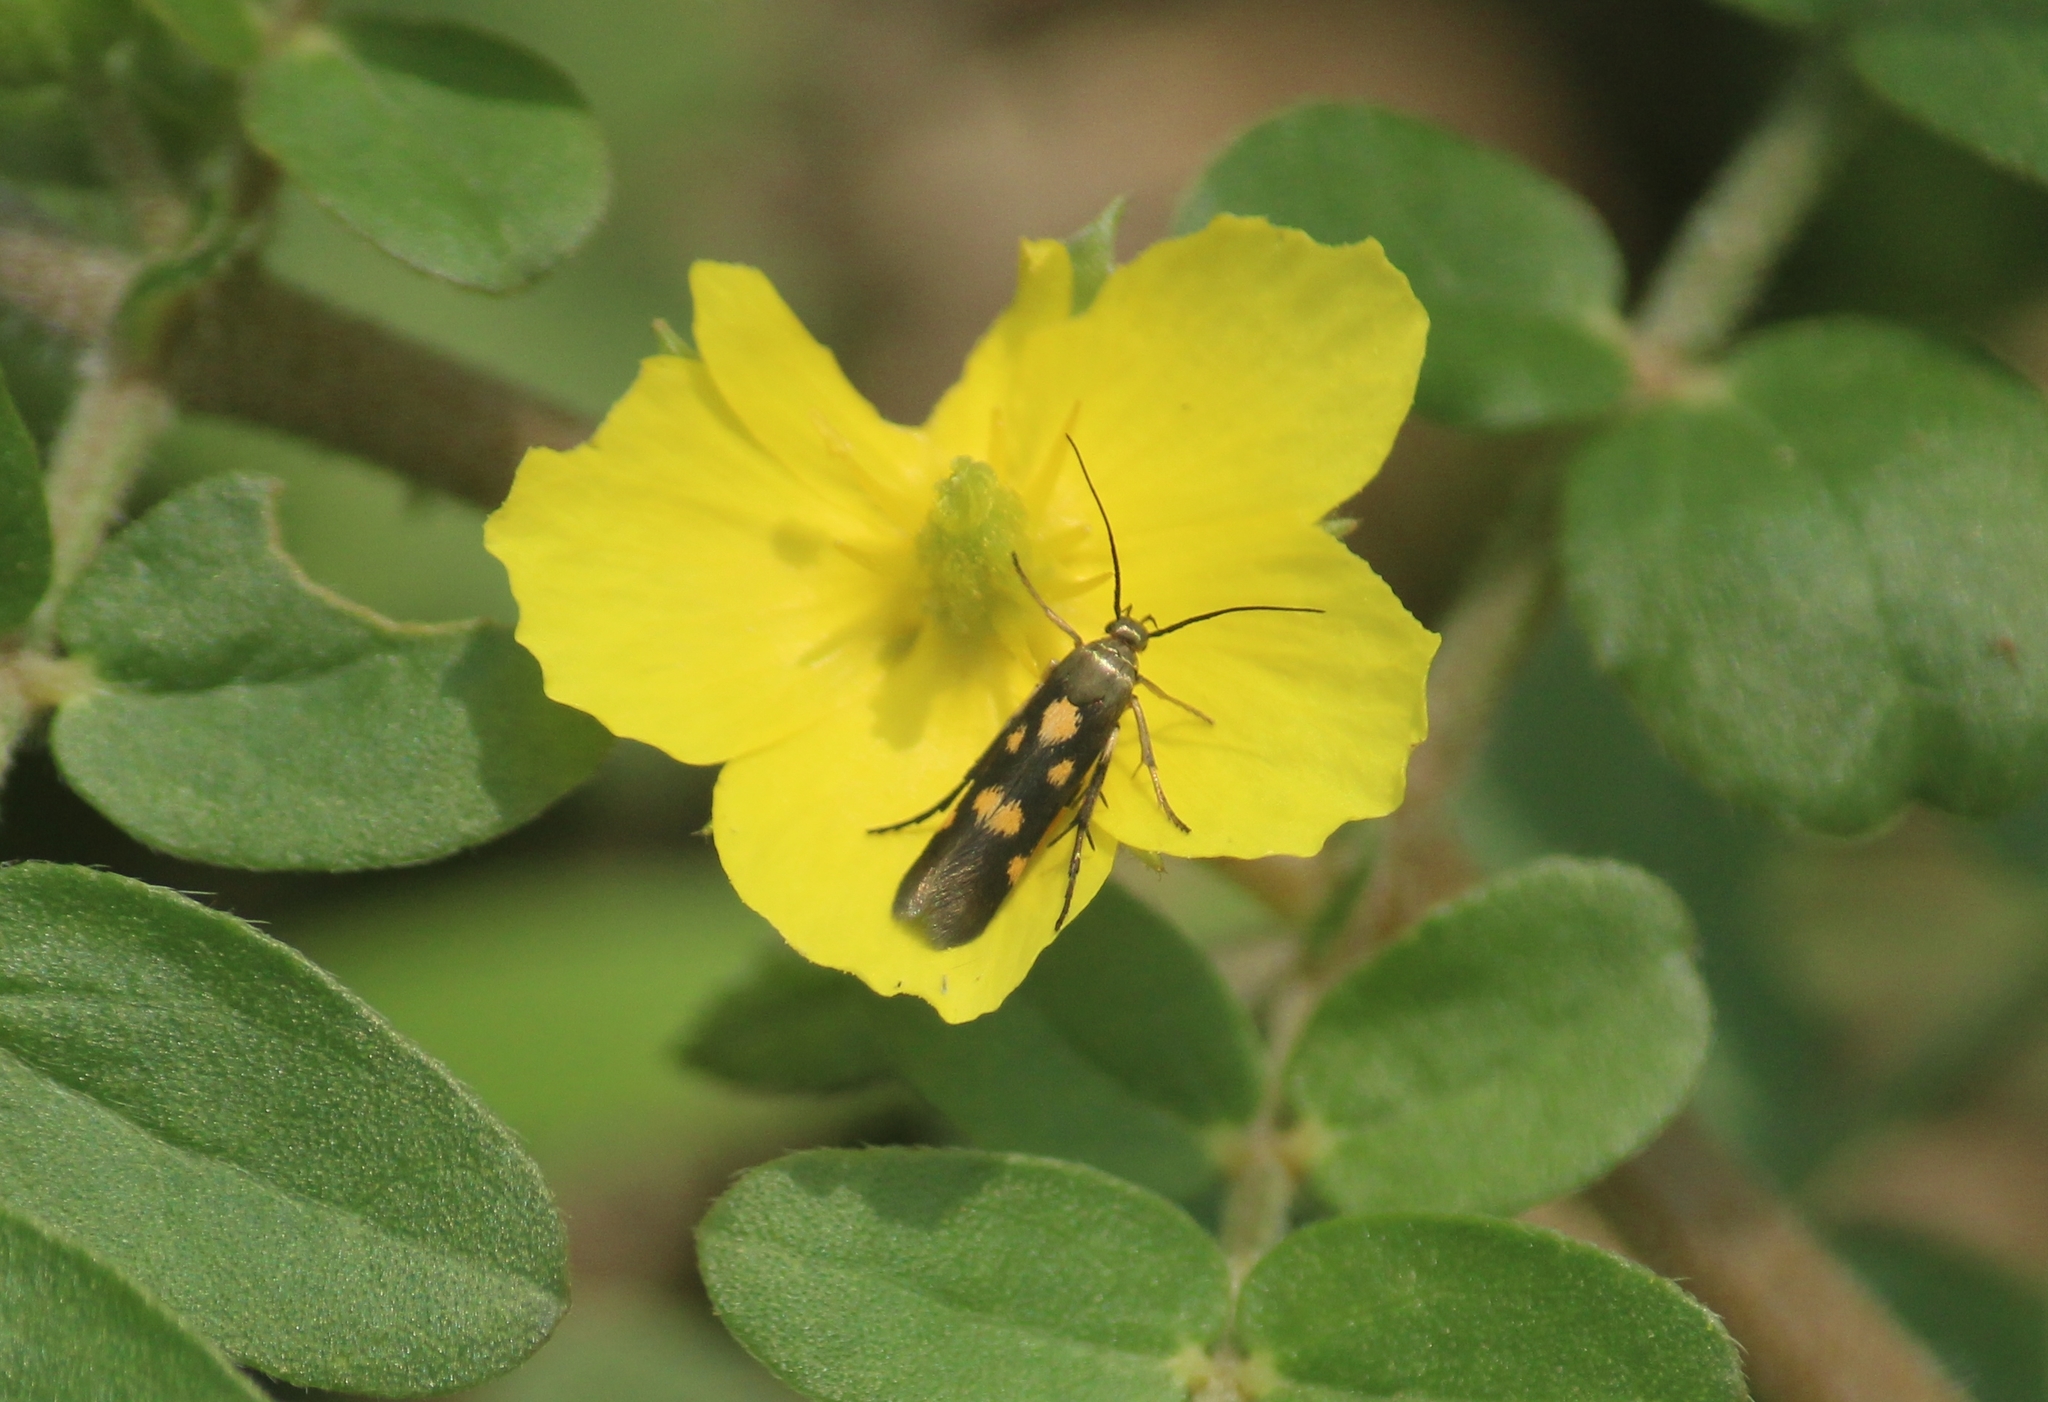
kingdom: Animalia
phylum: Arthropoda
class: Insecta
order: Lepidoptera
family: Scythrididae
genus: Eretmocera
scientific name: Eretmocera impactella
